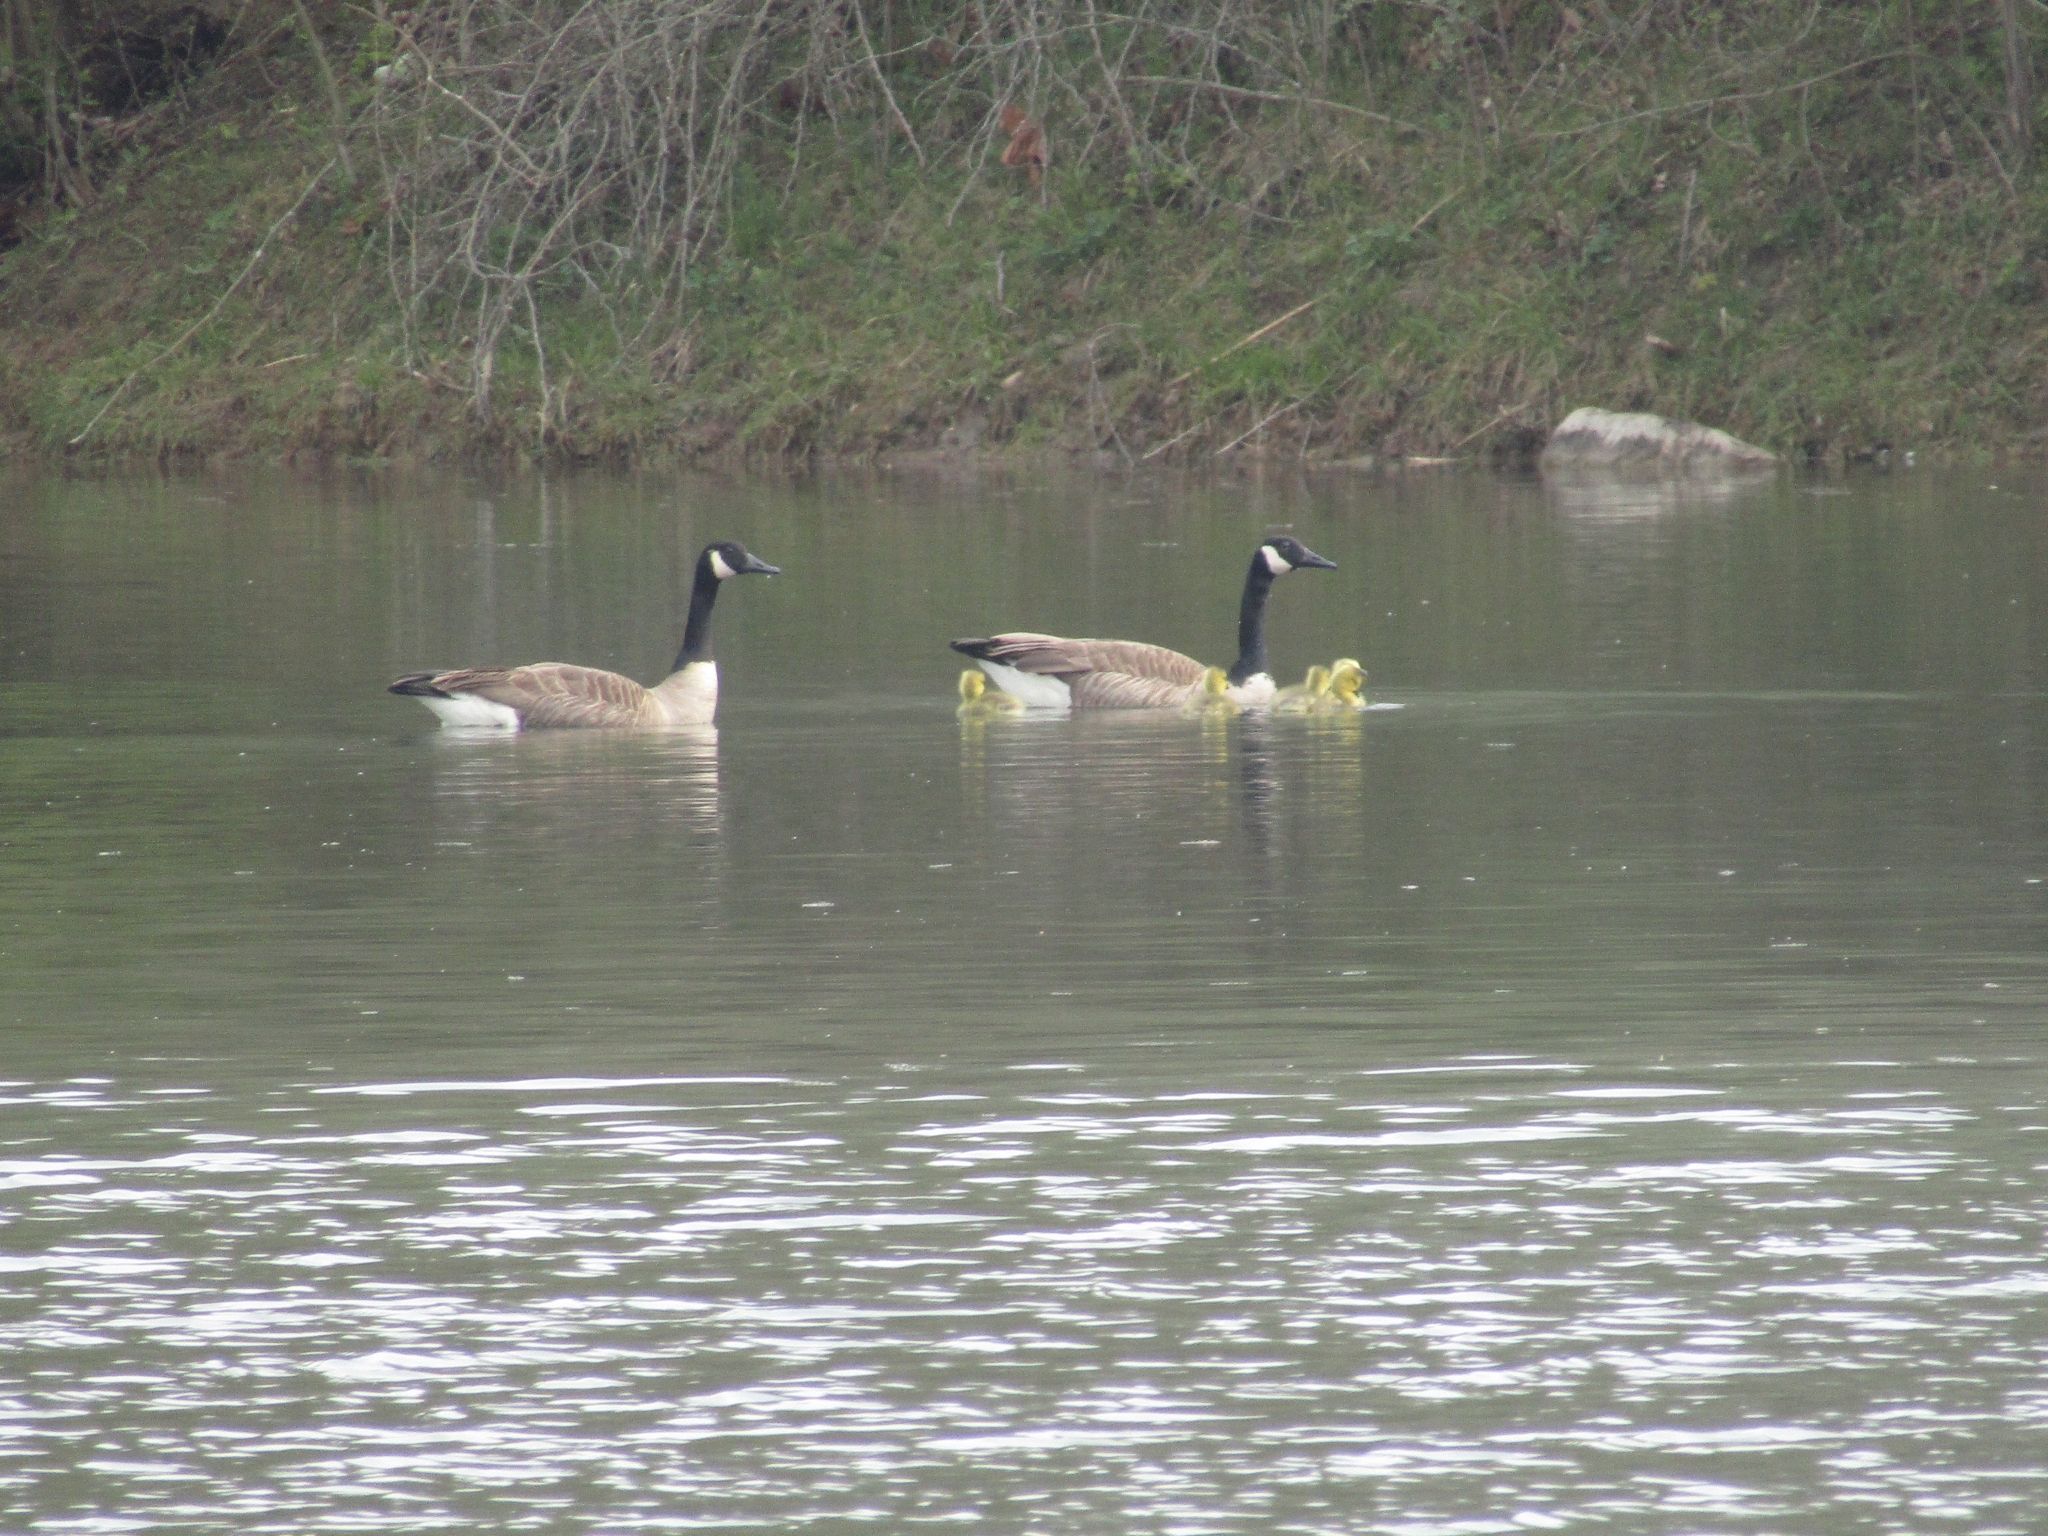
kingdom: Animalia
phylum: Chordata
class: Aves
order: Anseriformes
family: Anatidae
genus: Branta
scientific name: Branta canadensis
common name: Canada goose
